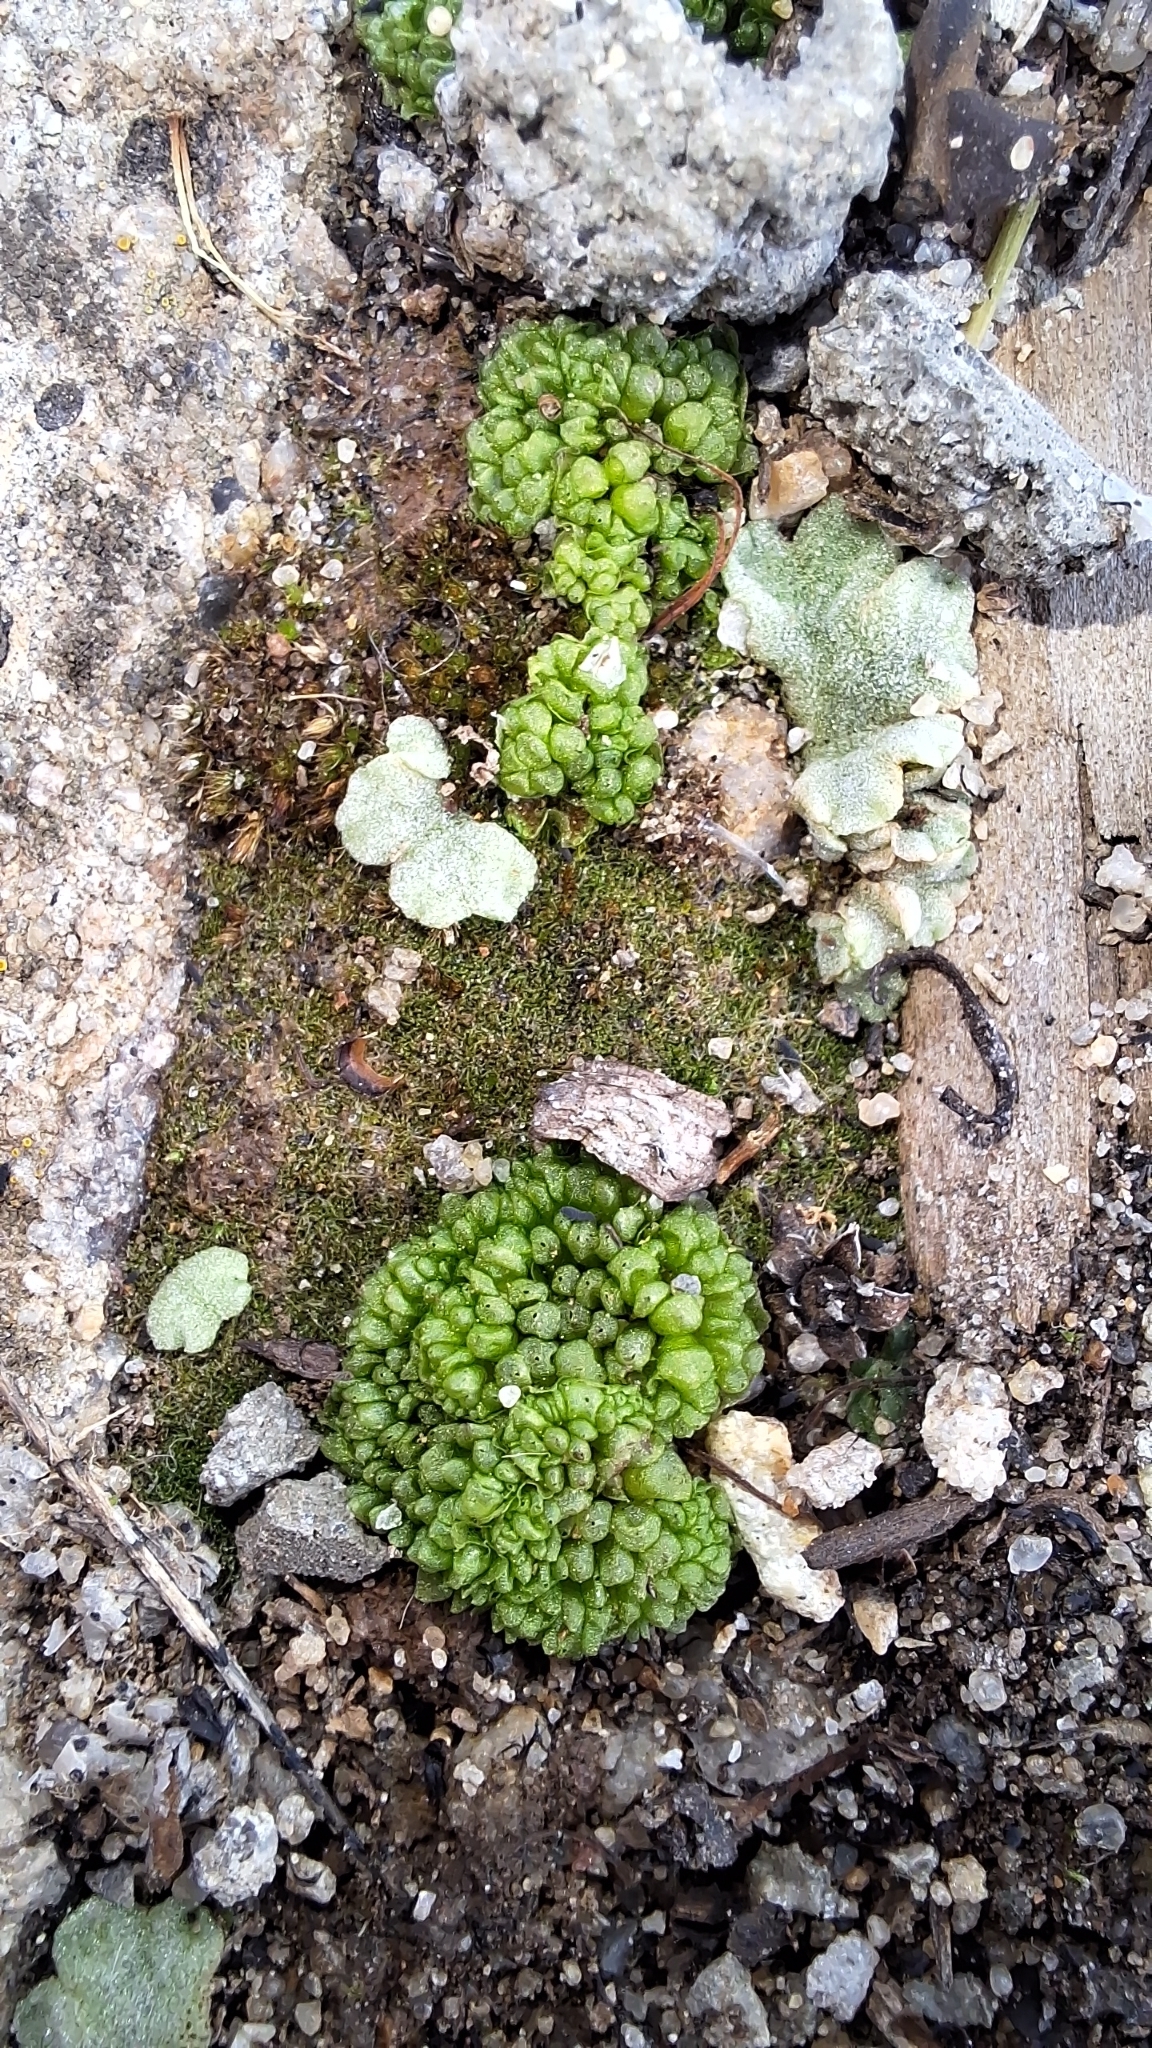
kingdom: Plantae
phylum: Marchantiophyta
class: Marchantiopsida
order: Sphaerocarpales
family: Sphaerocarpaceae
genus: Sphaerocarpos
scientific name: Sphaerocarpos texanus
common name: Texas balloonwort
